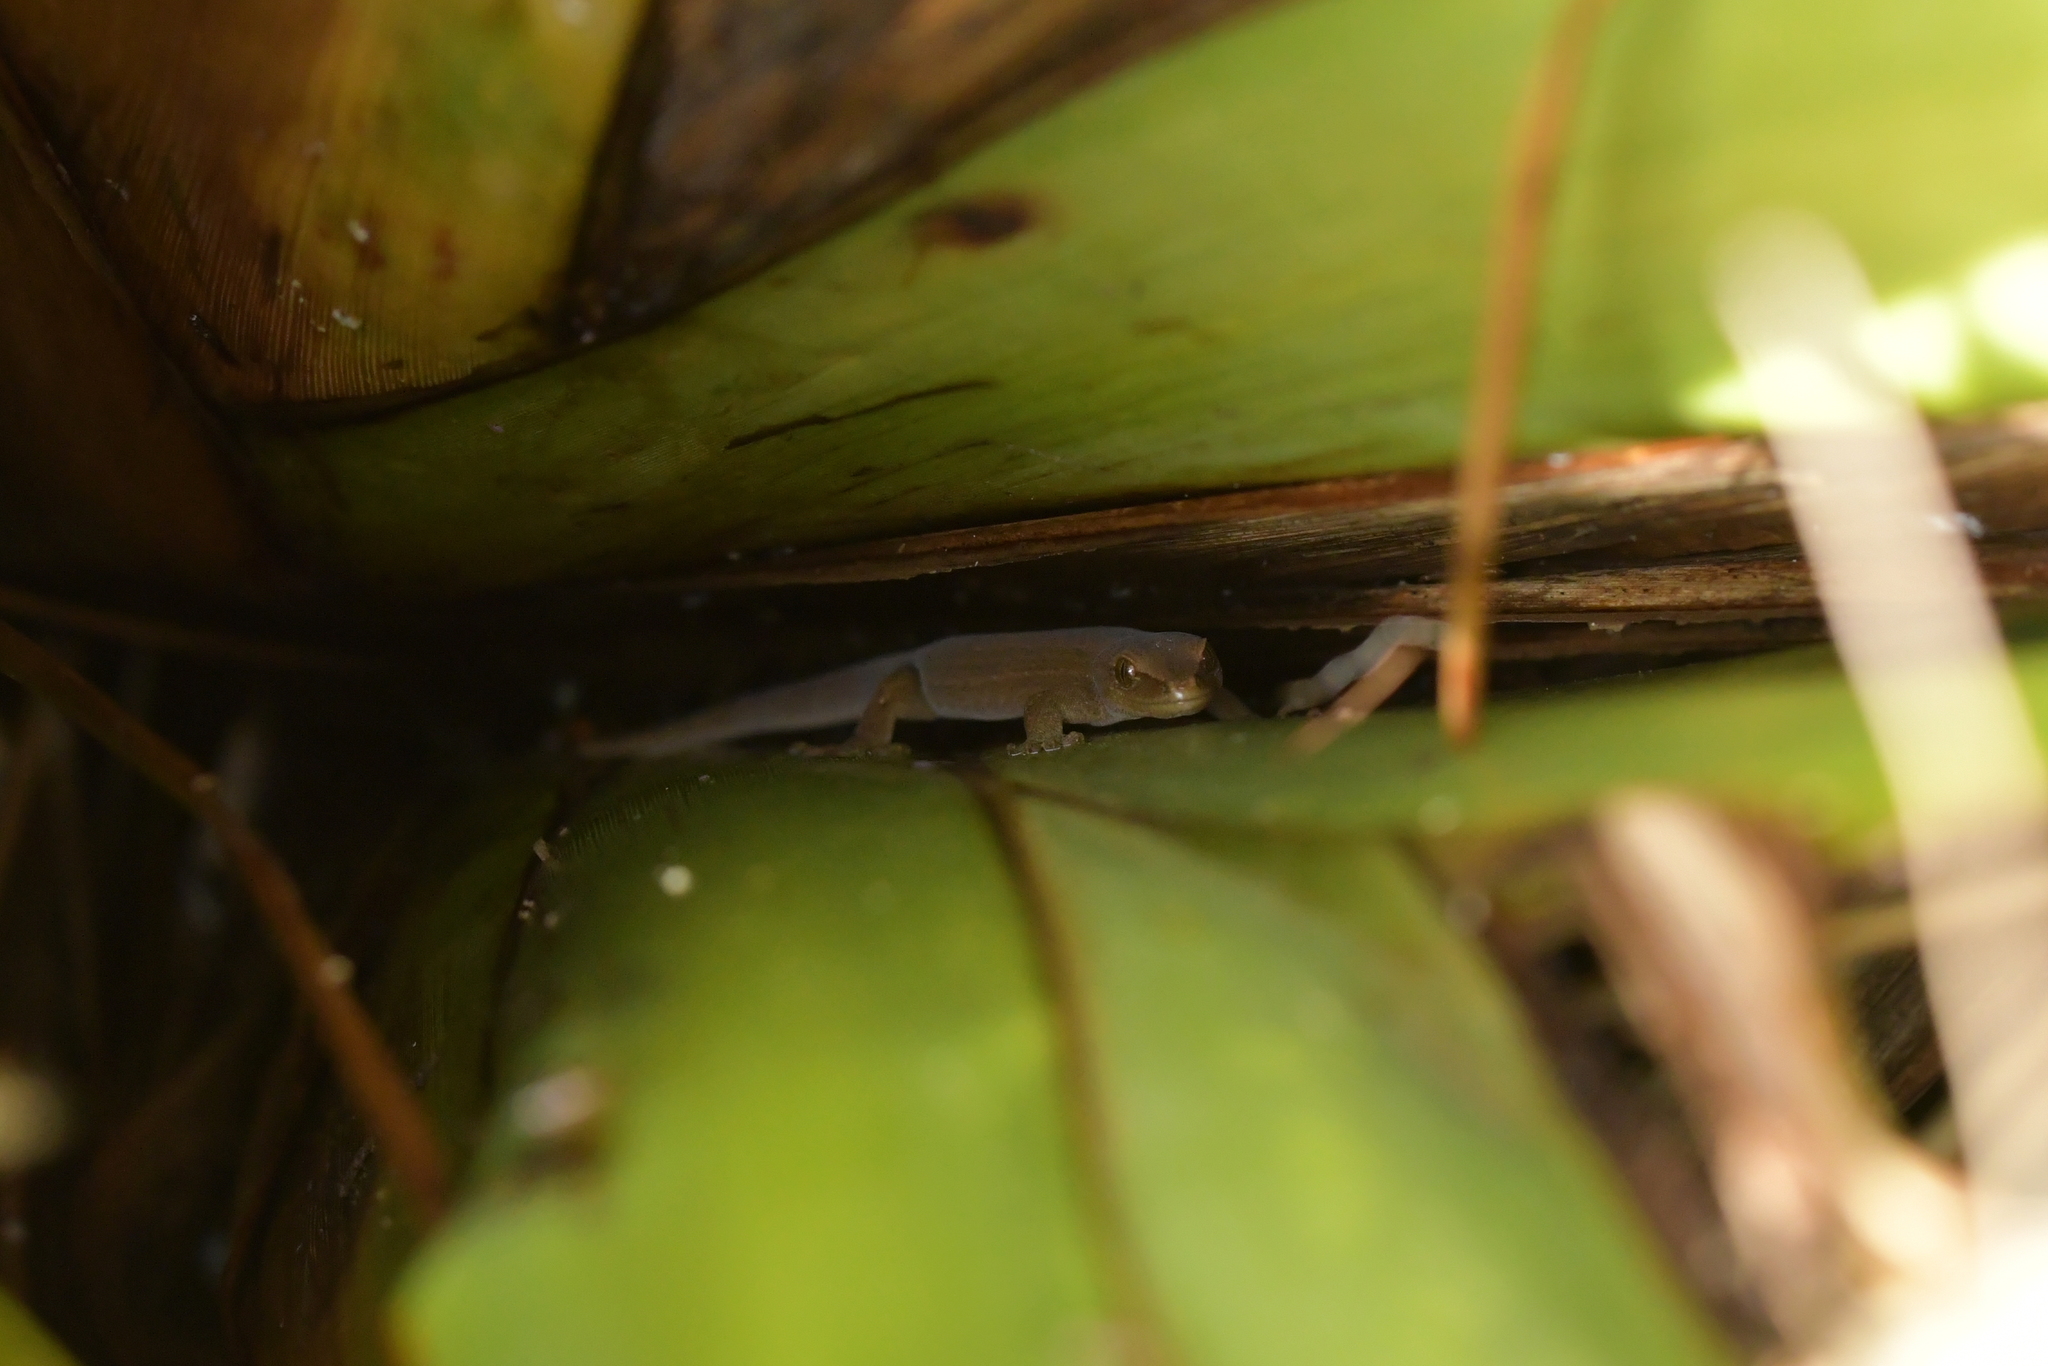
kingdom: Animalia
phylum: Chordata
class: Squamata
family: Diplodactylidae
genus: Woodworthia
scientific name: Woodworthia chrysosiretica
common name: Gold-striped gecko
